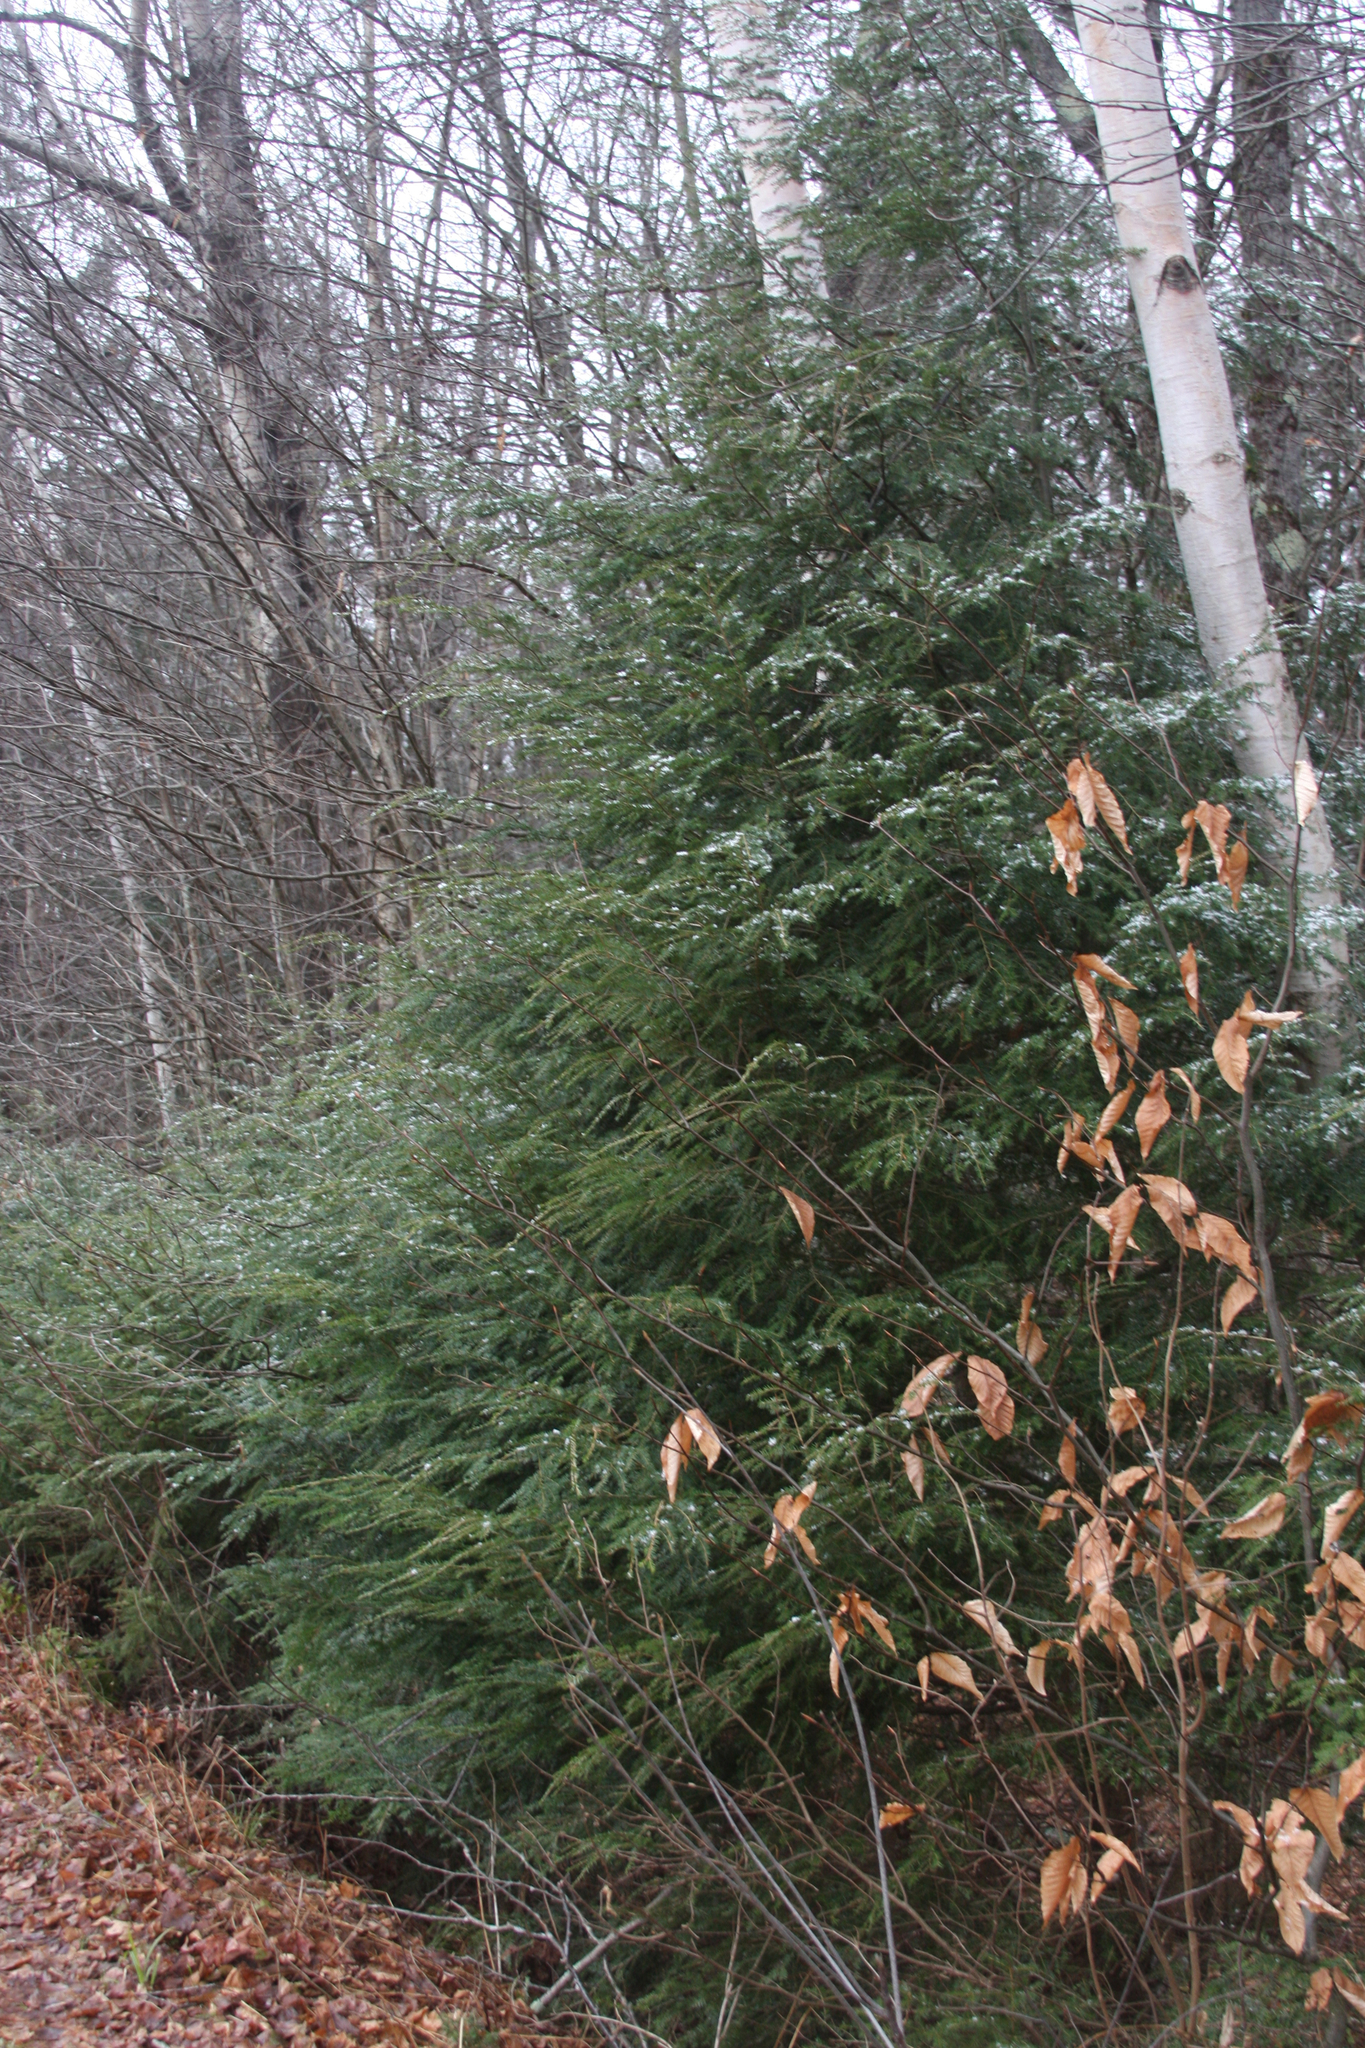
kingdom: Plantae
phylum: Tracheophyta
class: Pinopsida
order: Pinales
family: Pinaceae
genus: Tsuga
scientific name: Tsuga canadensis
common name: Eastern hemlock
